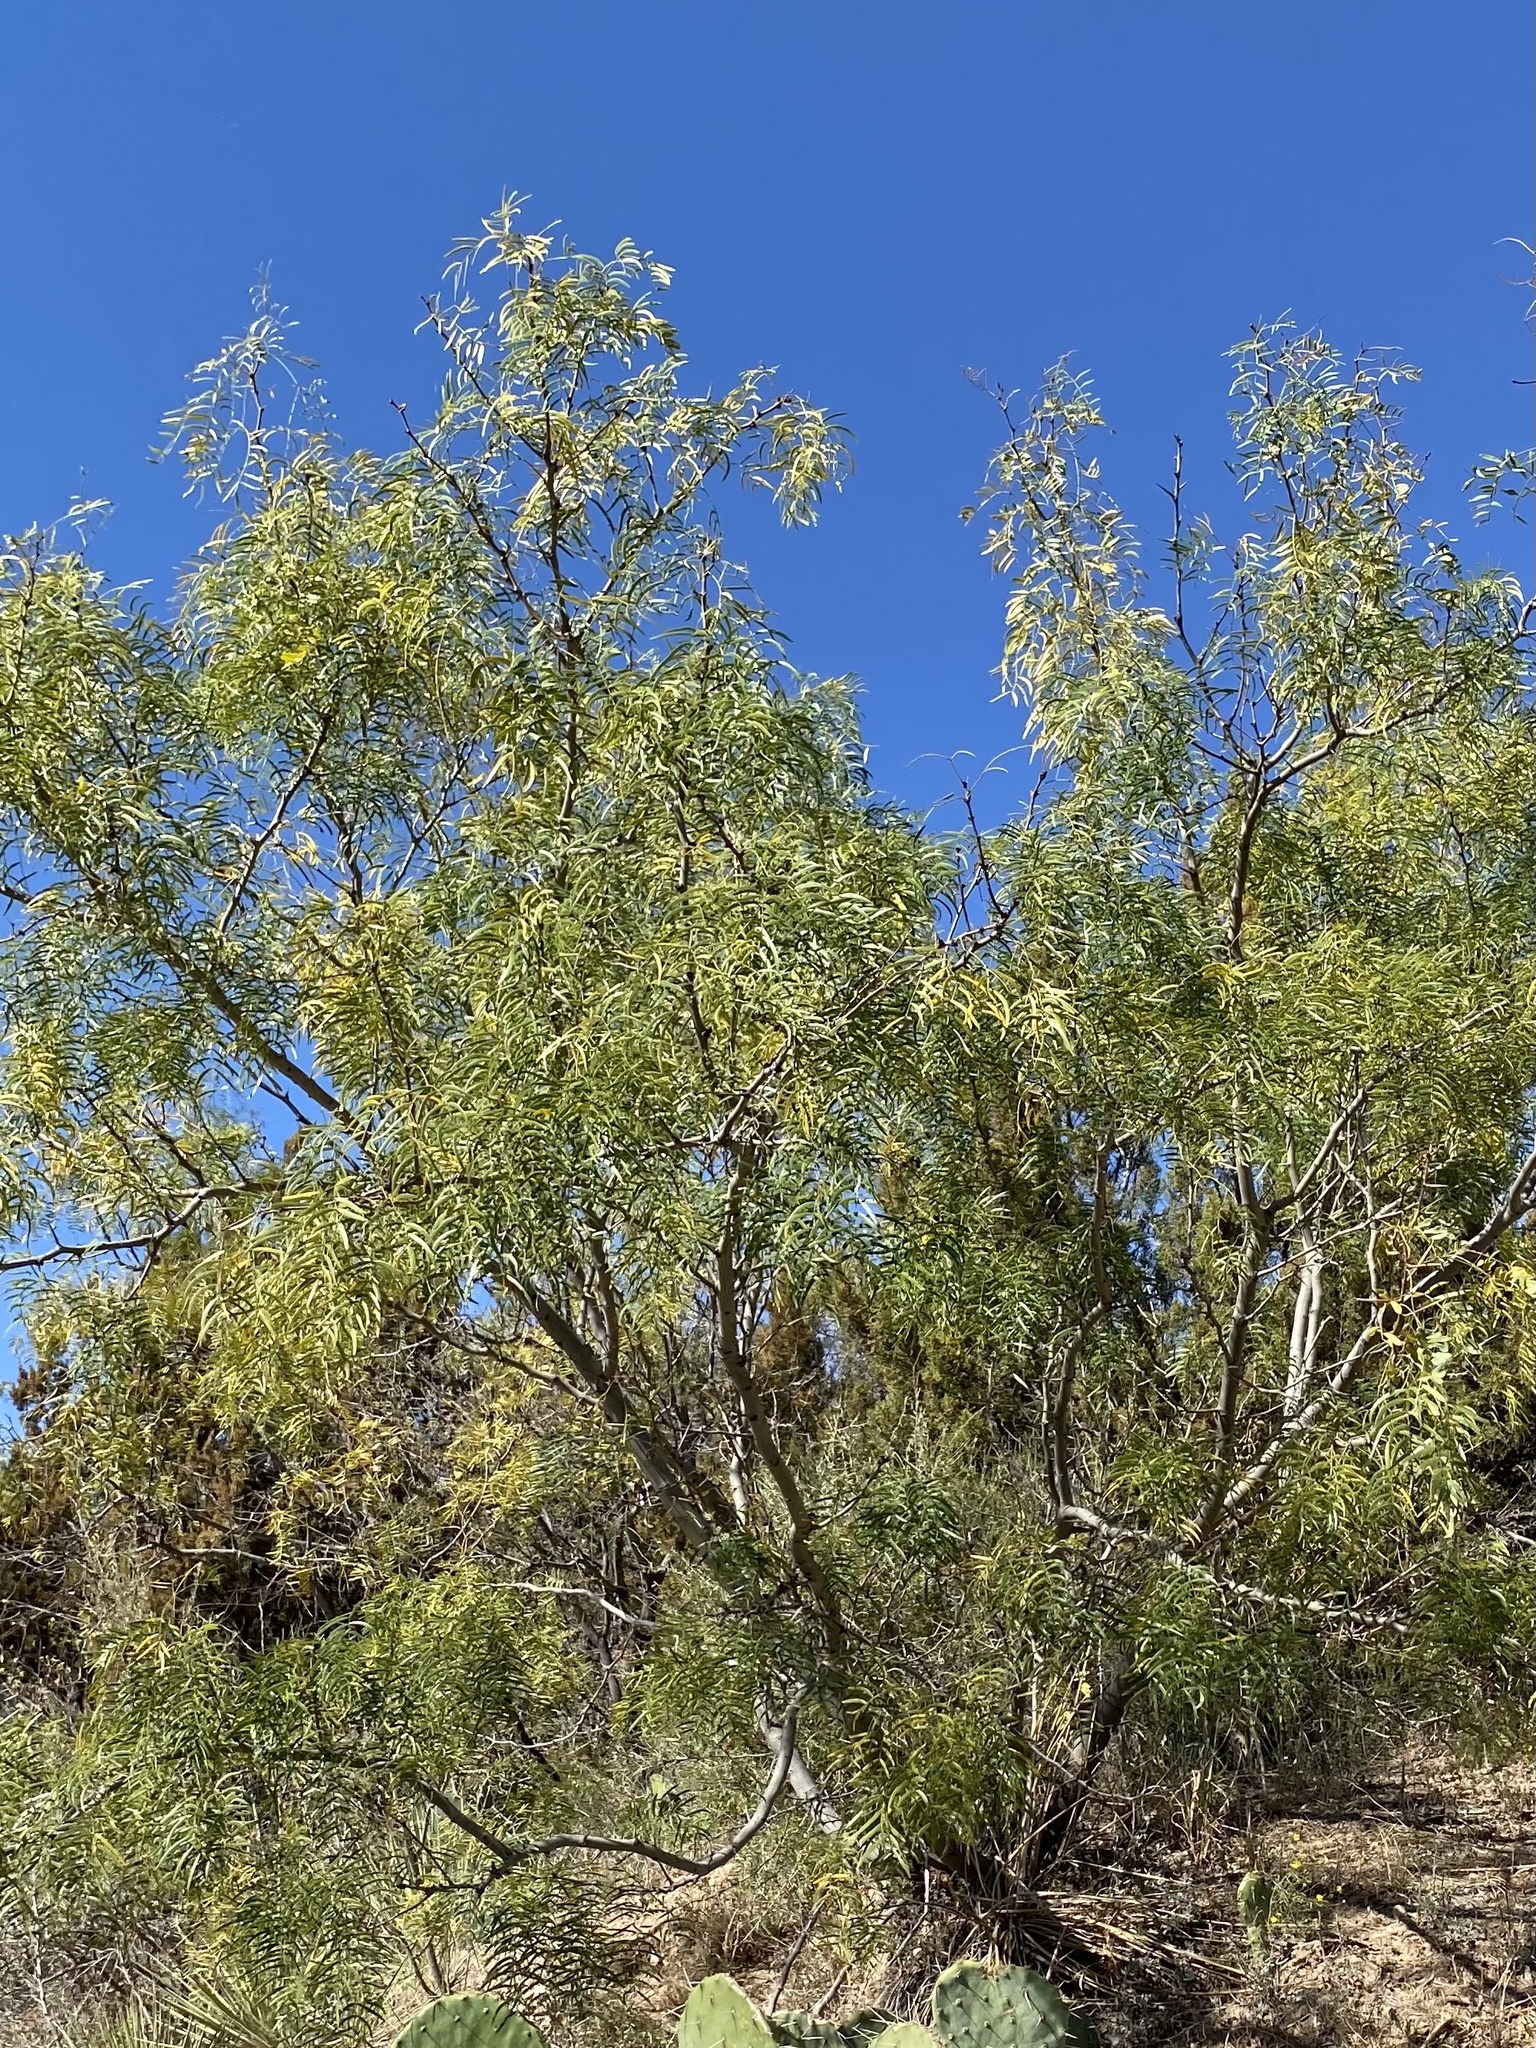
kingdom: Plantae
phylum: Tracheophyta
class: Magnoliopsida
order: Fabales
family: Fabaceae
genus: Prosopis
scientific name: Prosopis glandulosa
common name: Honey mesquite
